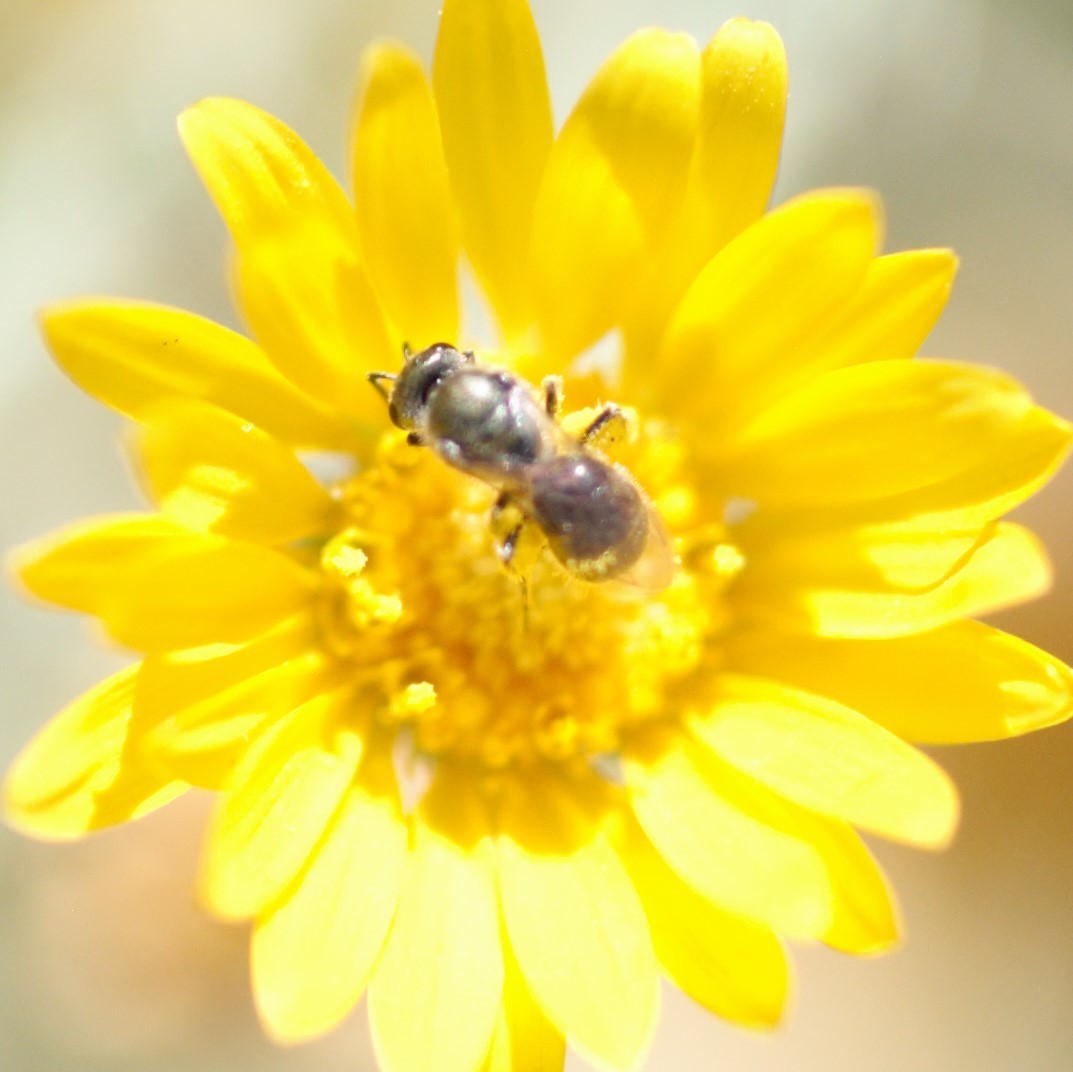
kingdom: Animalia
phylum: Arthropoda
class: Insecta
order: Hymenoptera
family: Halictidae
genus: Dialictus
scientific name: Dialictus
